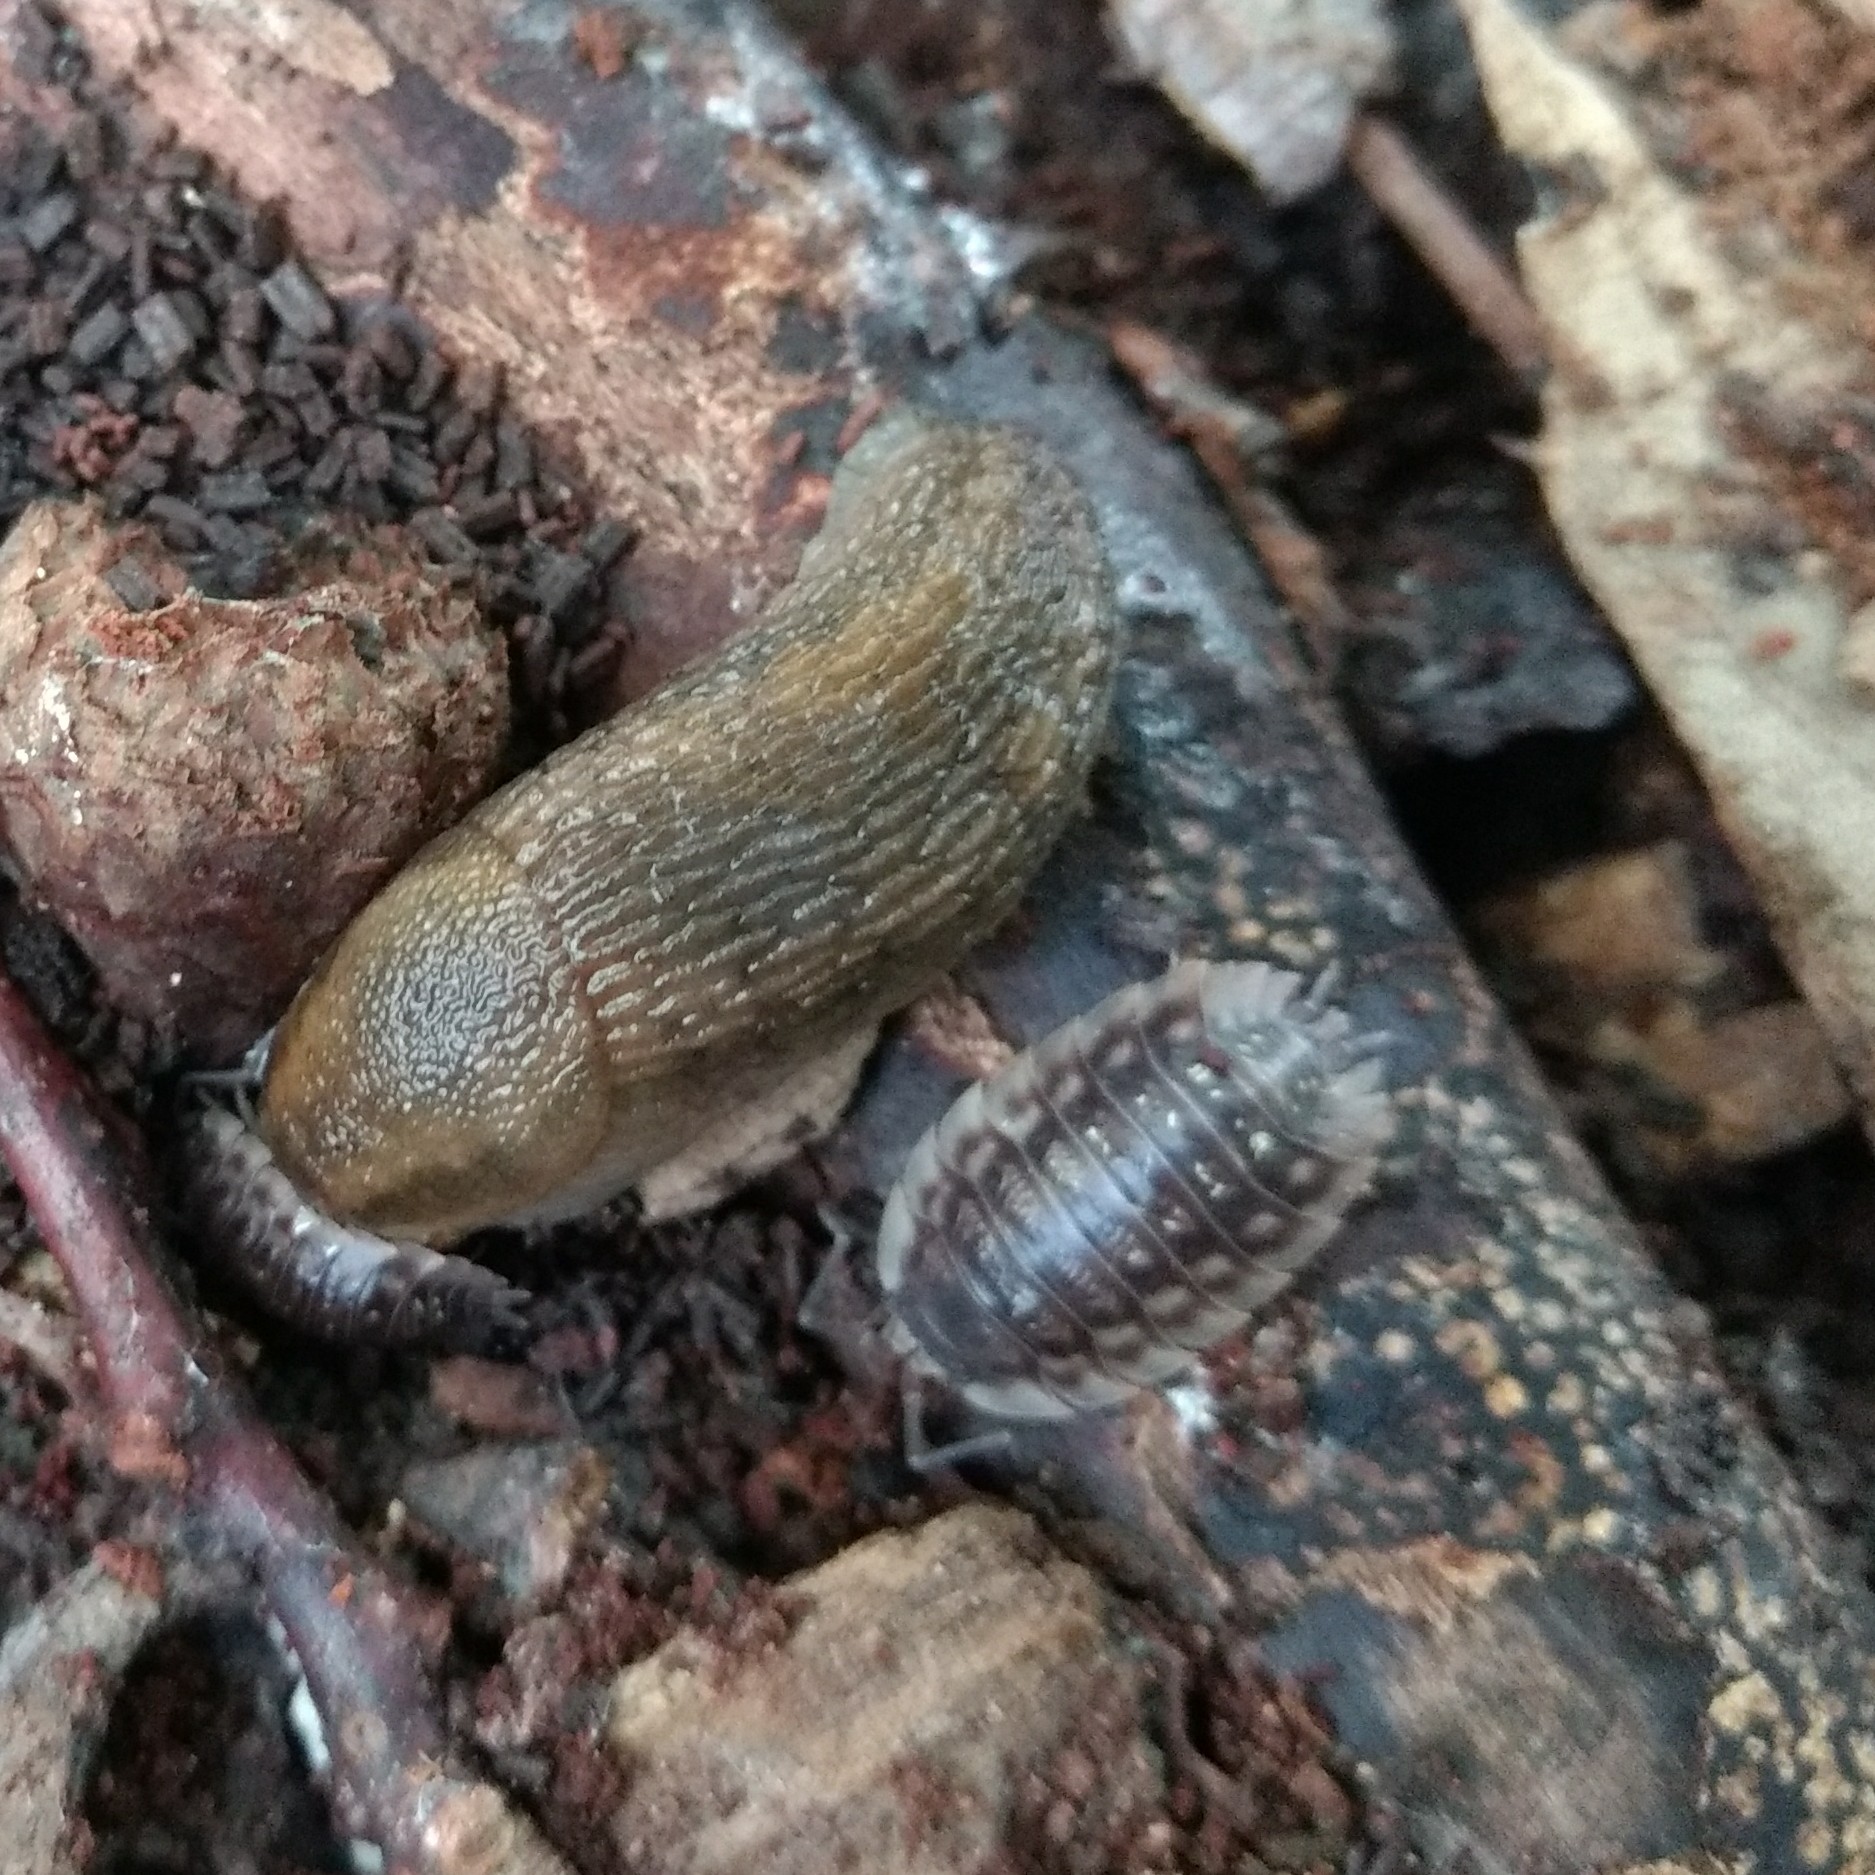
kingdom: Animalia
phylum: Arthropoda
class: Malacostraca
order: Isopoda
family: Oniscidae
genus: Oniscus
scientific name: Oniscus asellus
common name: Common shiny woodlouse
